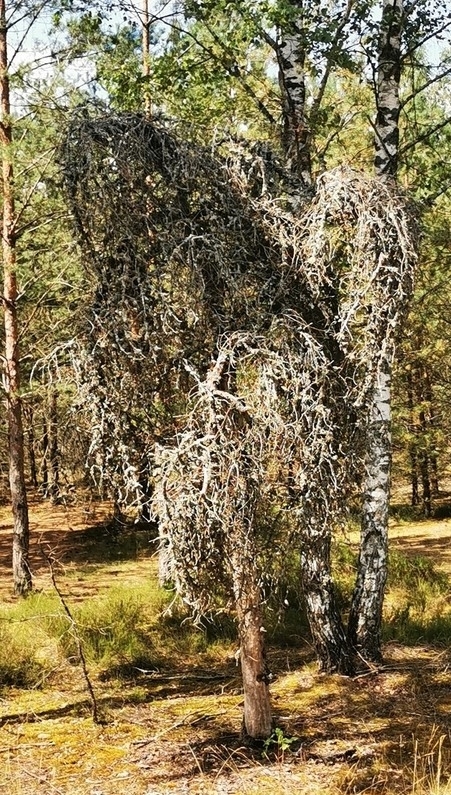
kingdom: Plantae
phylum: Tracheophyta
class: Pinopsida
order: Pinales
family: Pinaceae
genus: Pinus
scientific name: Pinus banksiana
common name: Jack pine
